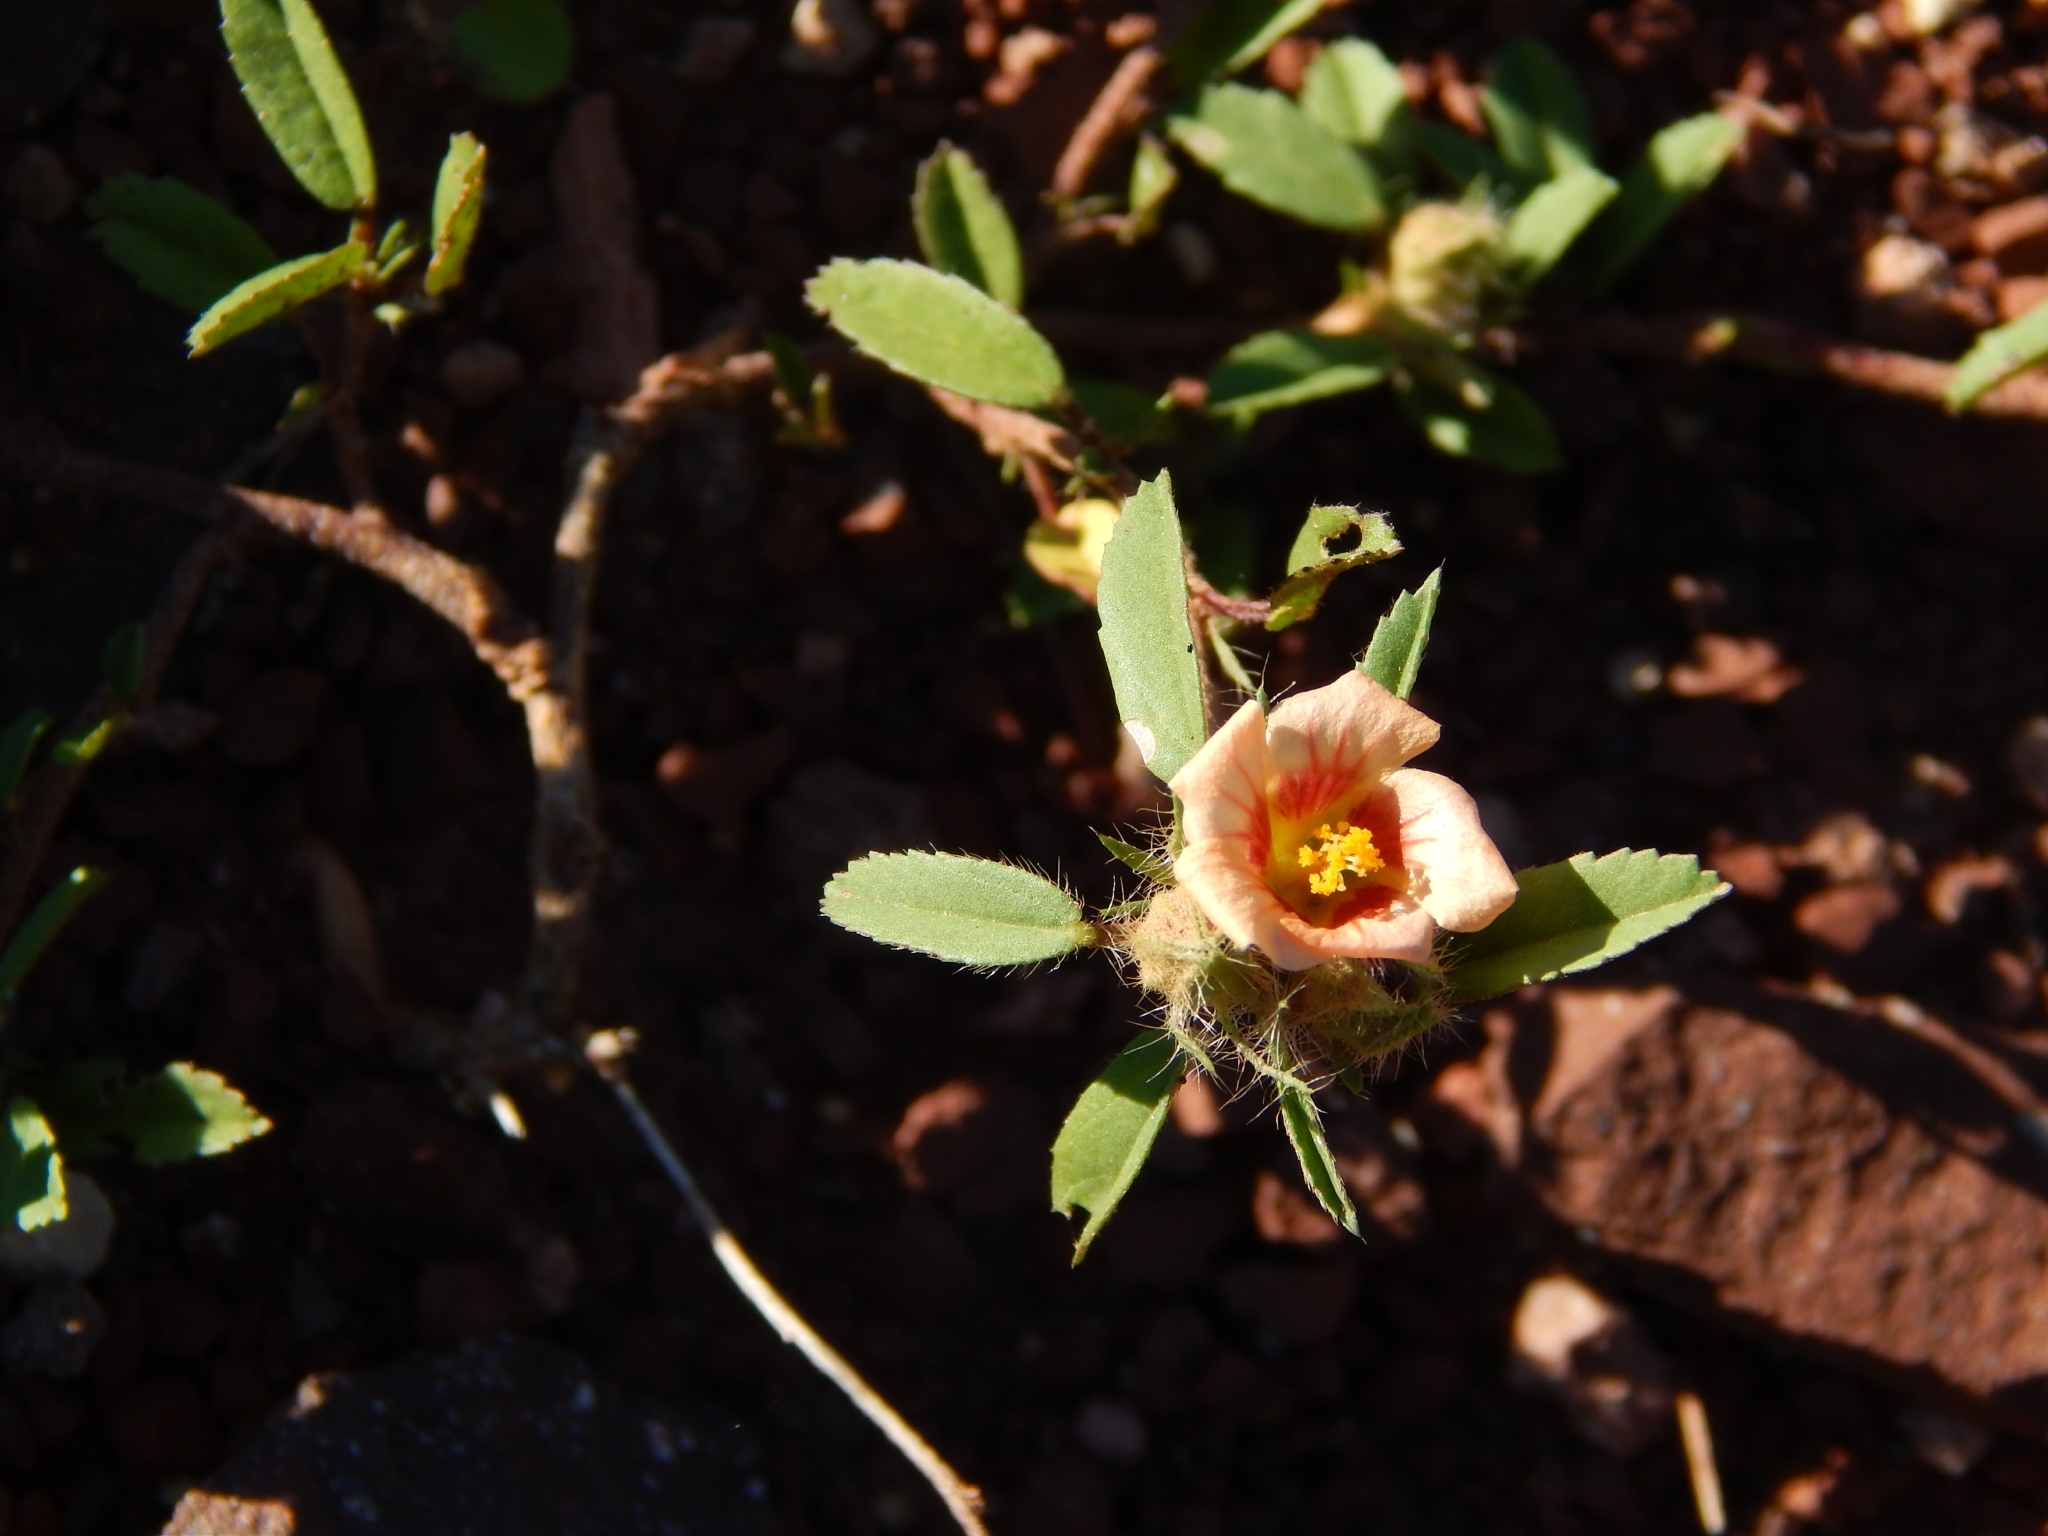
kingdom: Plantae
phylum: Tracheophyta
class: Magnoliopsida
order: Malvales
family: Malvaceae
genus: Sida
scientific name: Sida ciliaris
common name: Bracted fanpetals
